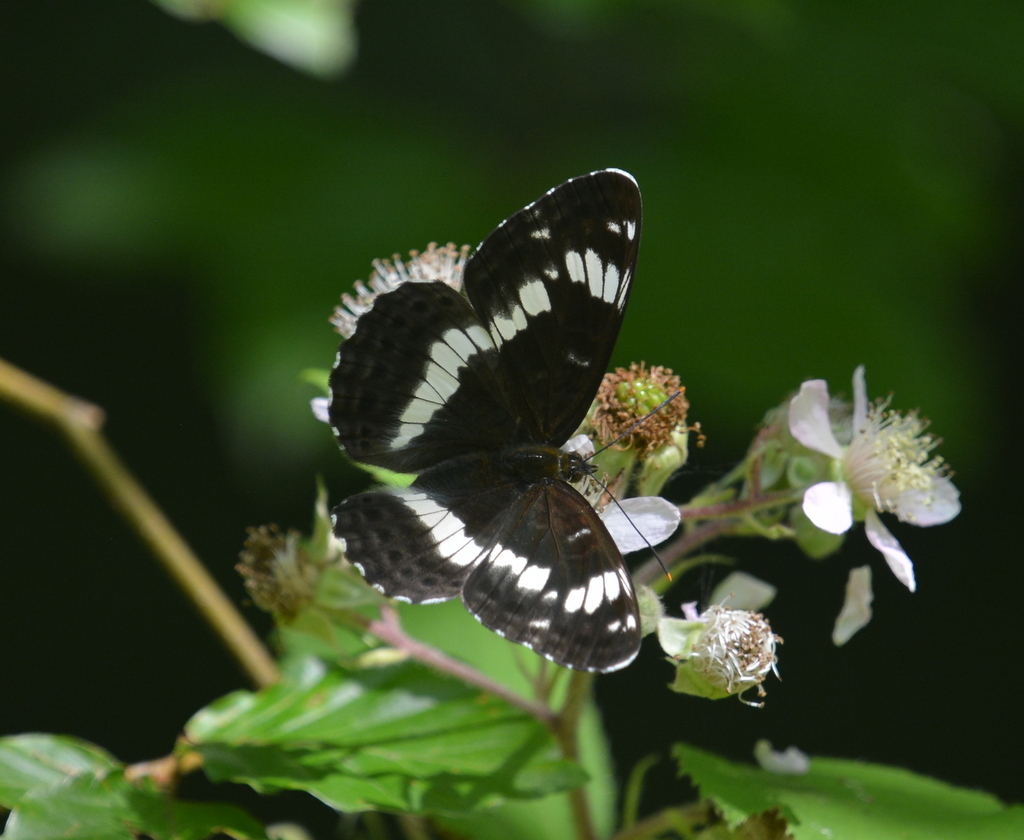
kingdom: Animalia
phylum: Arthropoda
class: Insecta
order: Lepidoptera
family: Nymphalidae
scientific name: Nymphalidae
